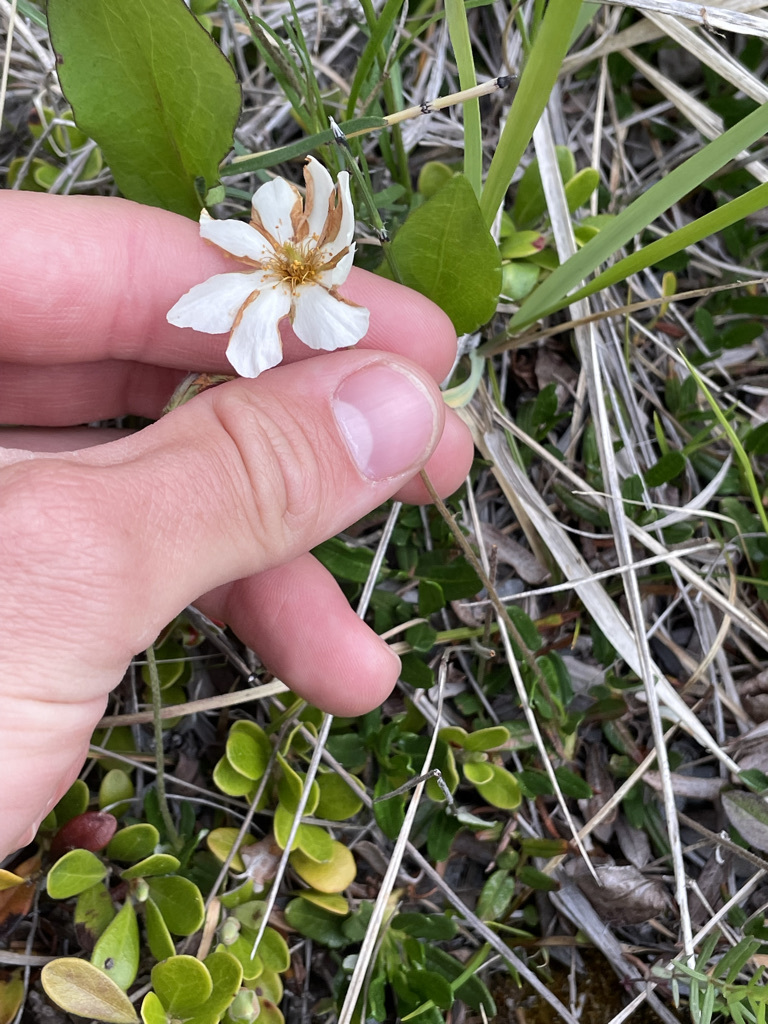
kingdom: Plantae
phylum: Tracheophyta
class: Magnoliopsida
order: Rosales
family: Rosaceae
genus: Dryas
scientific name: Dryas integrifolia
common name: Entire-leaved mountain avens
